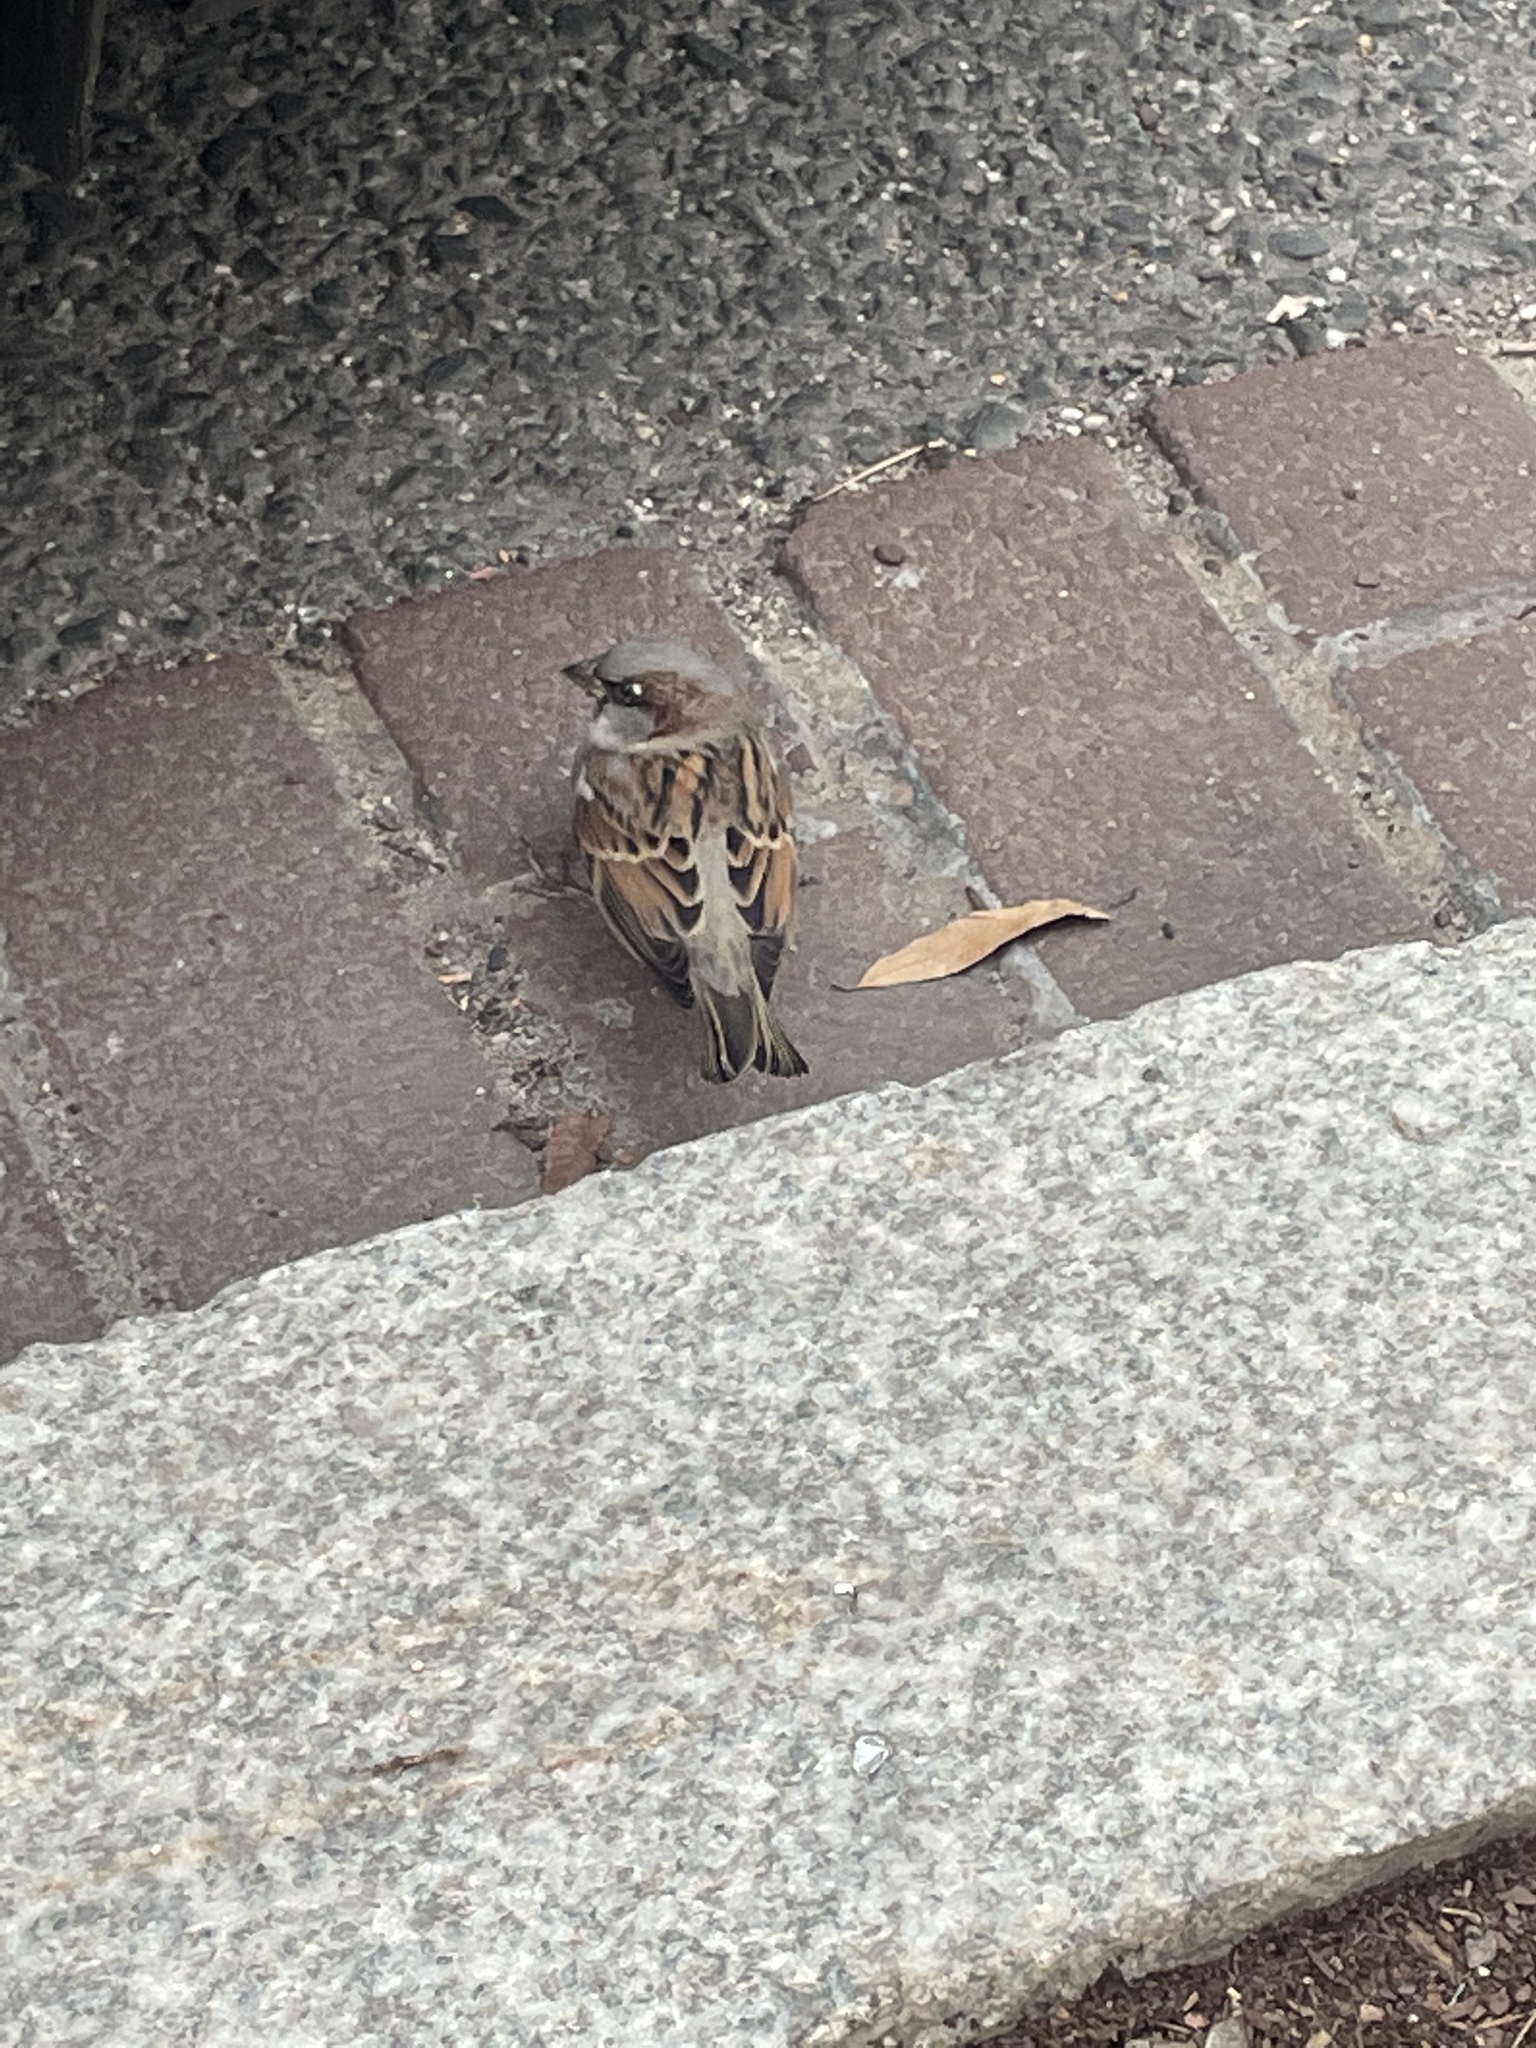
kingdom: Animalia
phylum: Chordata
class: Aves
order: Passeriformes
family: Passeridae
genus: Passer
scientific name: Passer domesticus
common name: House sparrow
